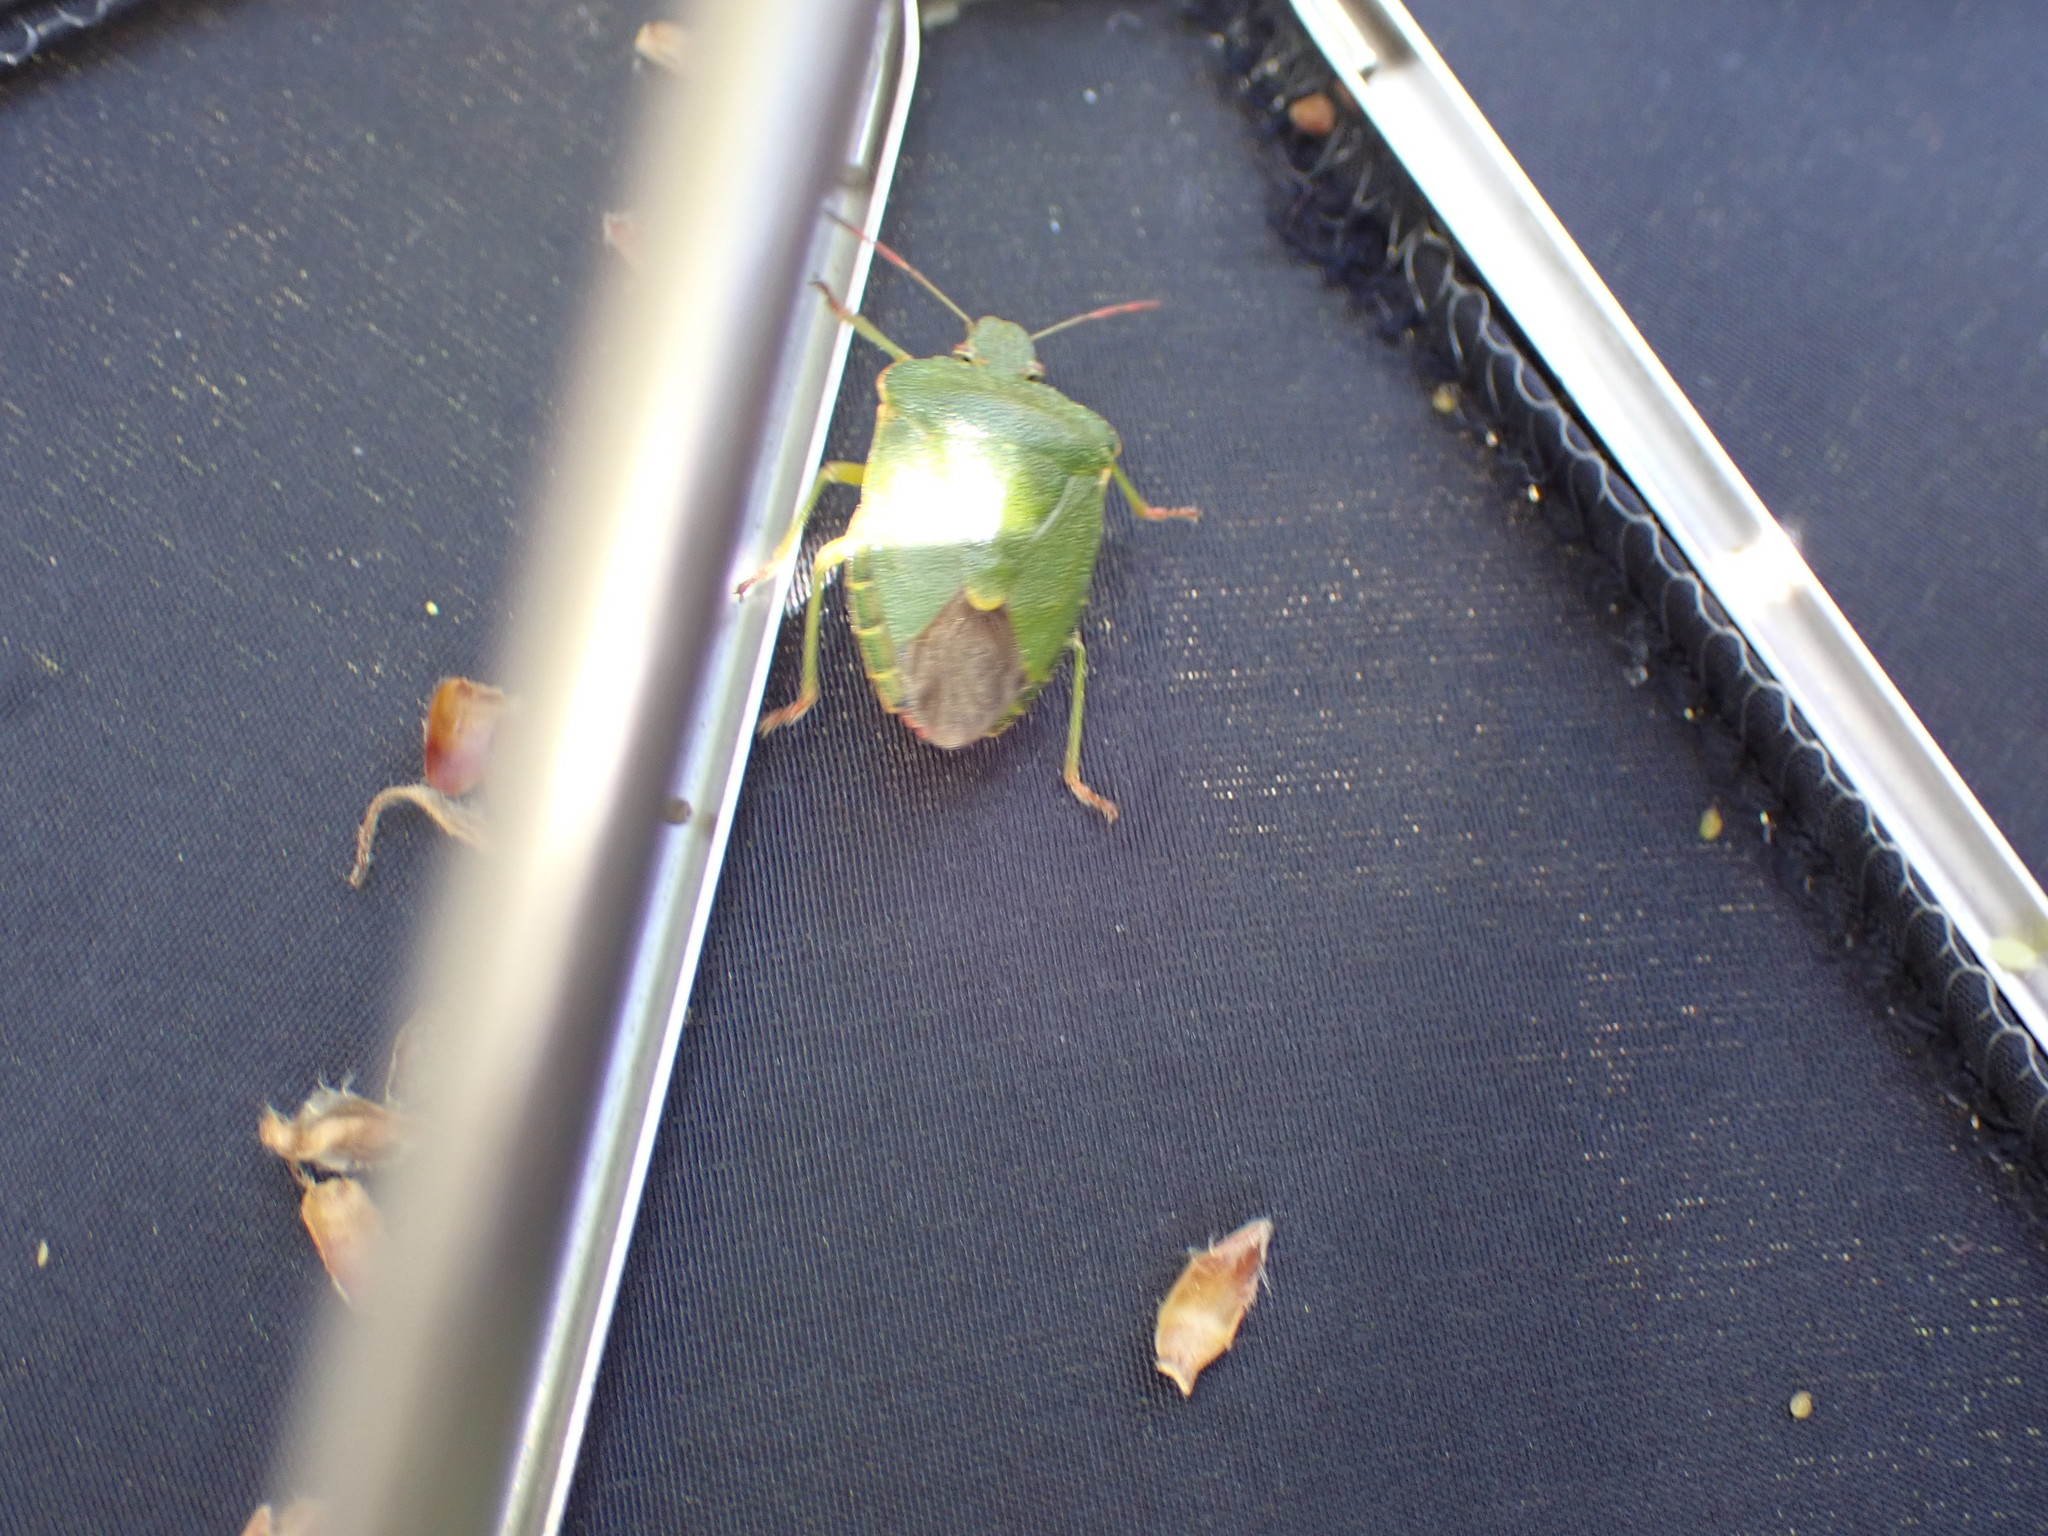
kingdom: Animalia
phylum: Arthropoda
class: Insecta
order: Hemiptera
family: Pentatomidae
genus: Palomena
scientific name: Palomena prasina
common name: Green shieldbug
